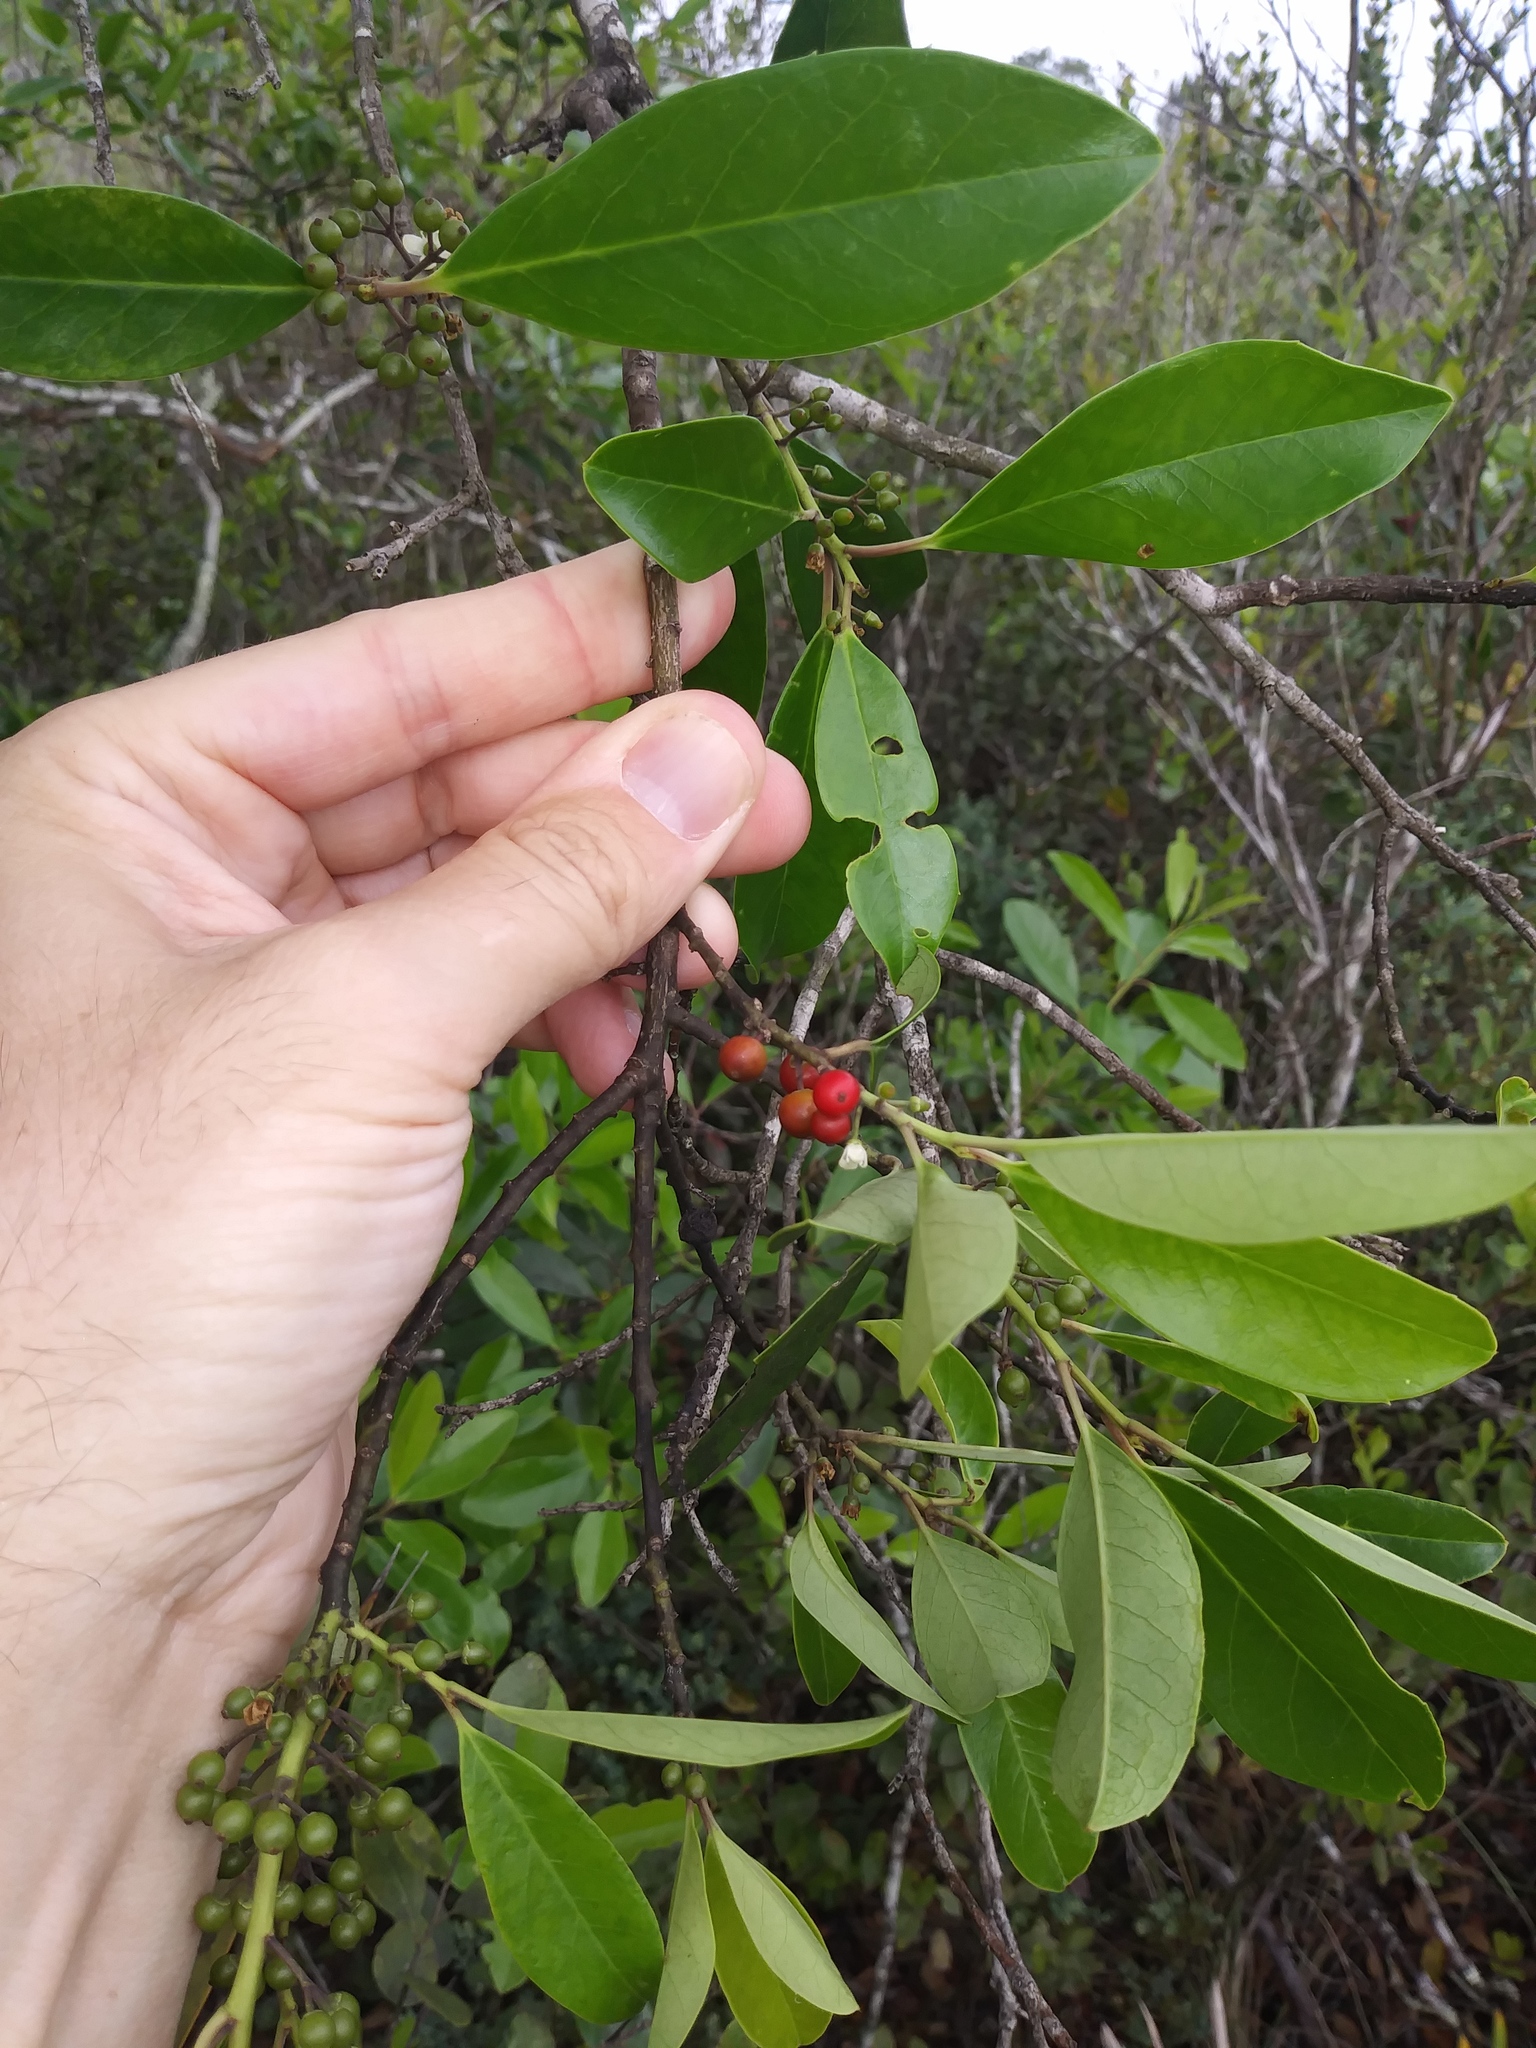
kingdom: Plantae
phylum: Tracheophyta
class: Magnoliopsida
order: Aquifoliales
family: Aquifoliaceae
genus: Ilex
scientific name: Ilex cassine
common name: Dahoon
